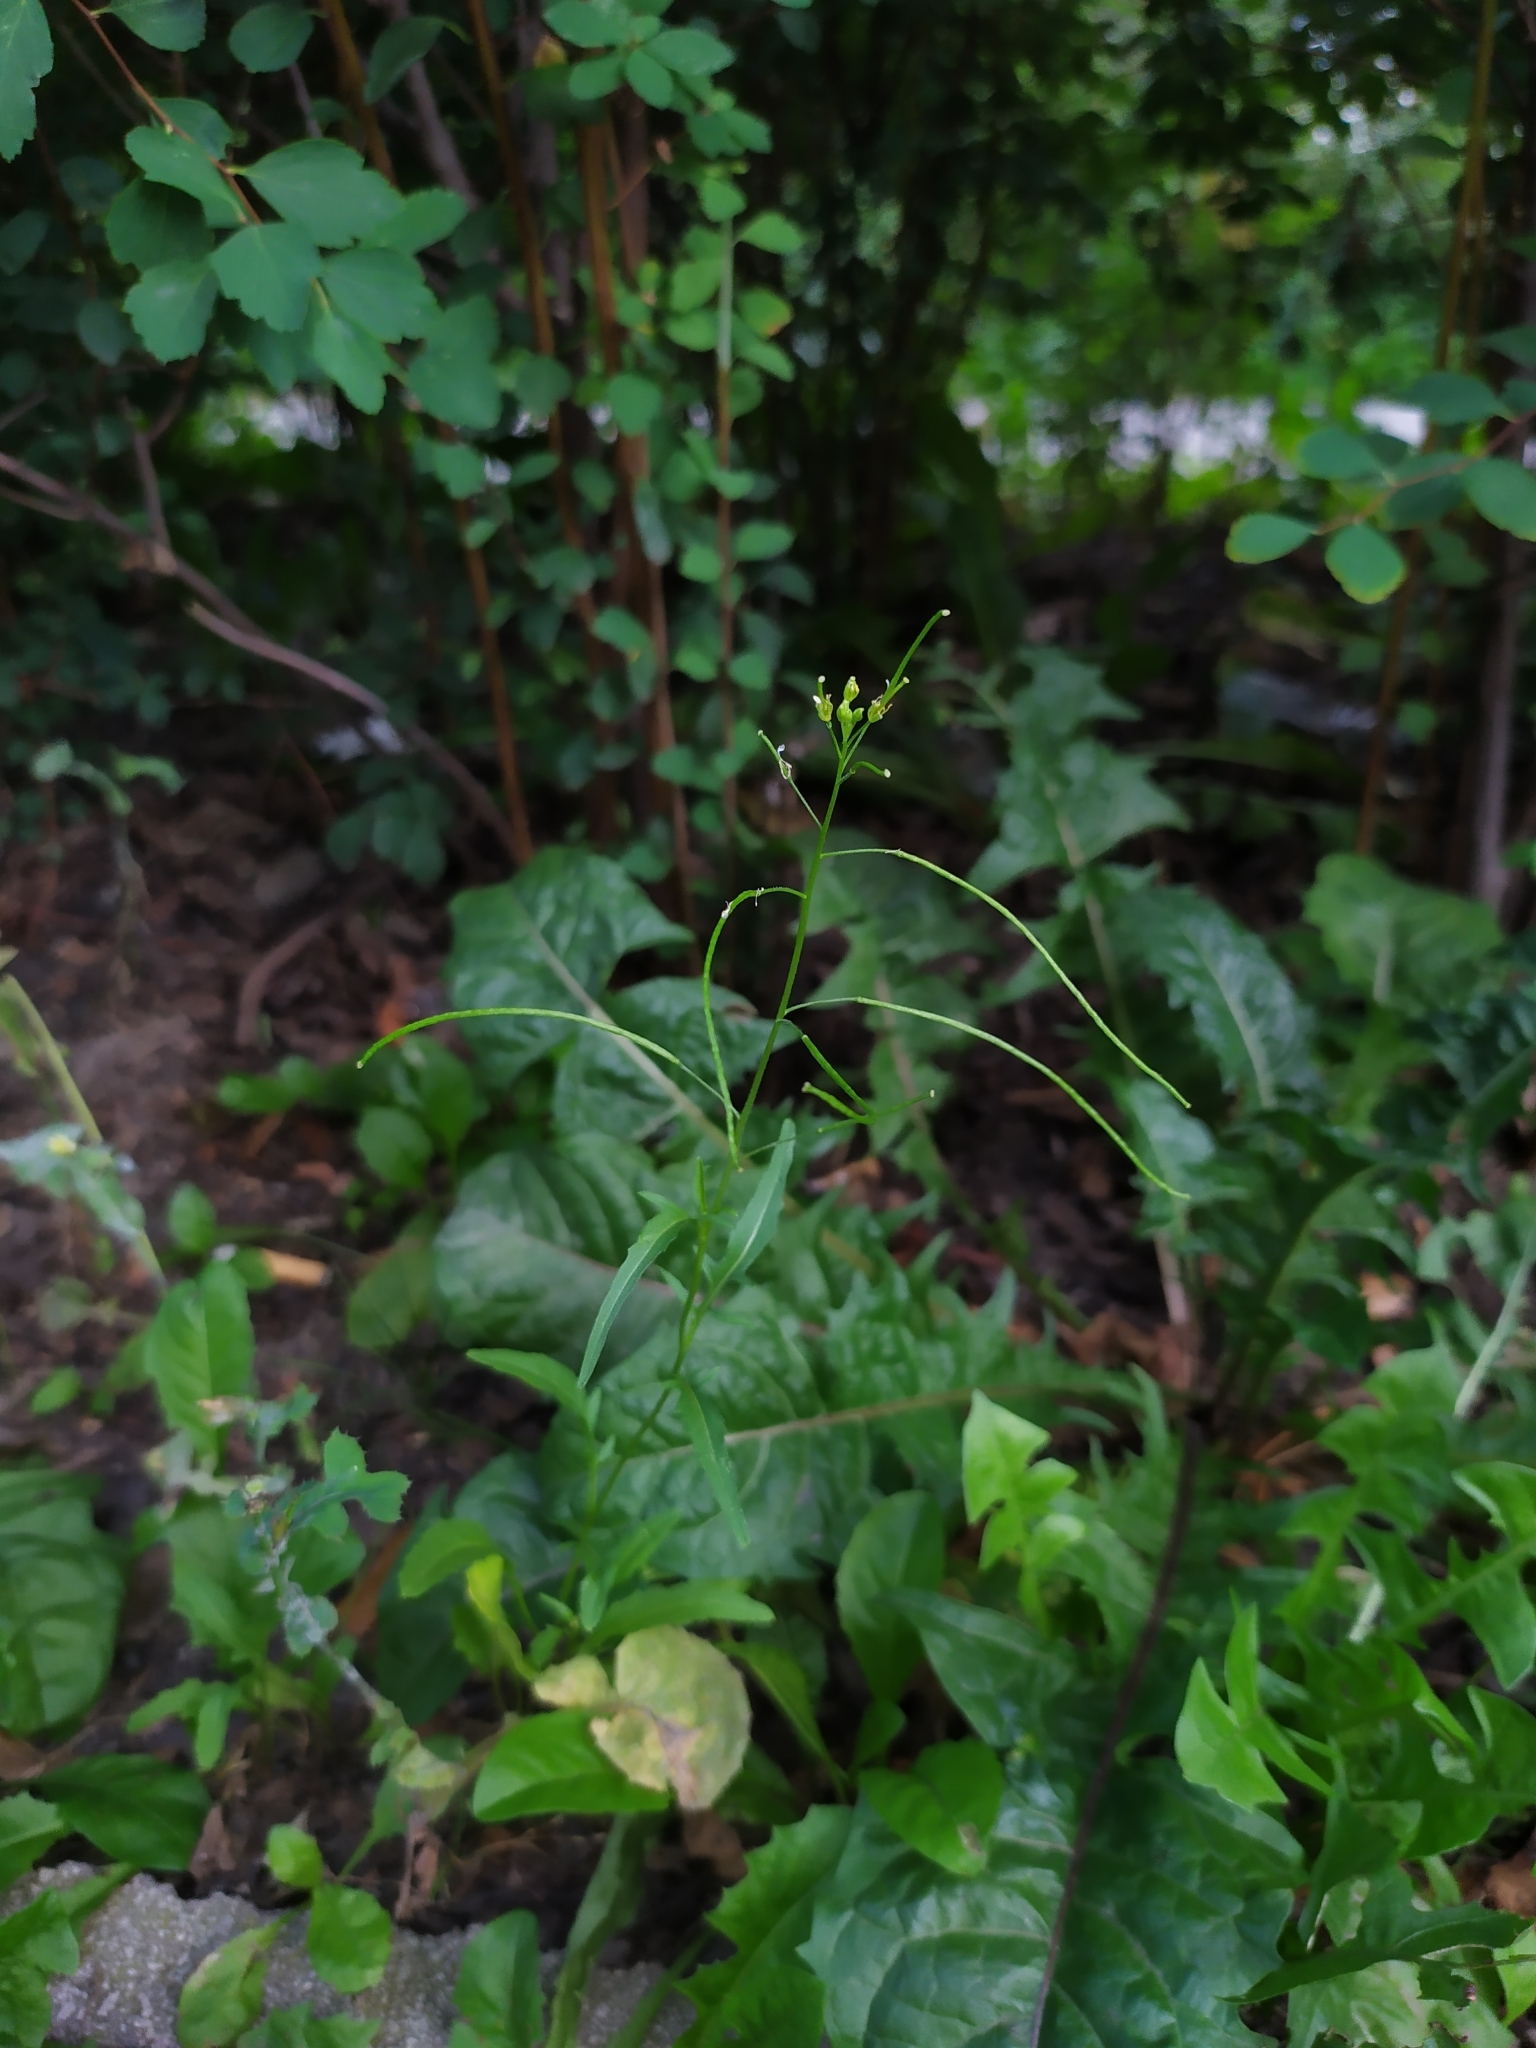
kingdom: Plantae
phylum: Tracheophyta
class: Magnoliopsida
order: Brassicales
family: Brassicaceae
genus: Sisymbrium
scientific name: Sisymbrium irio
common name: London rocket
